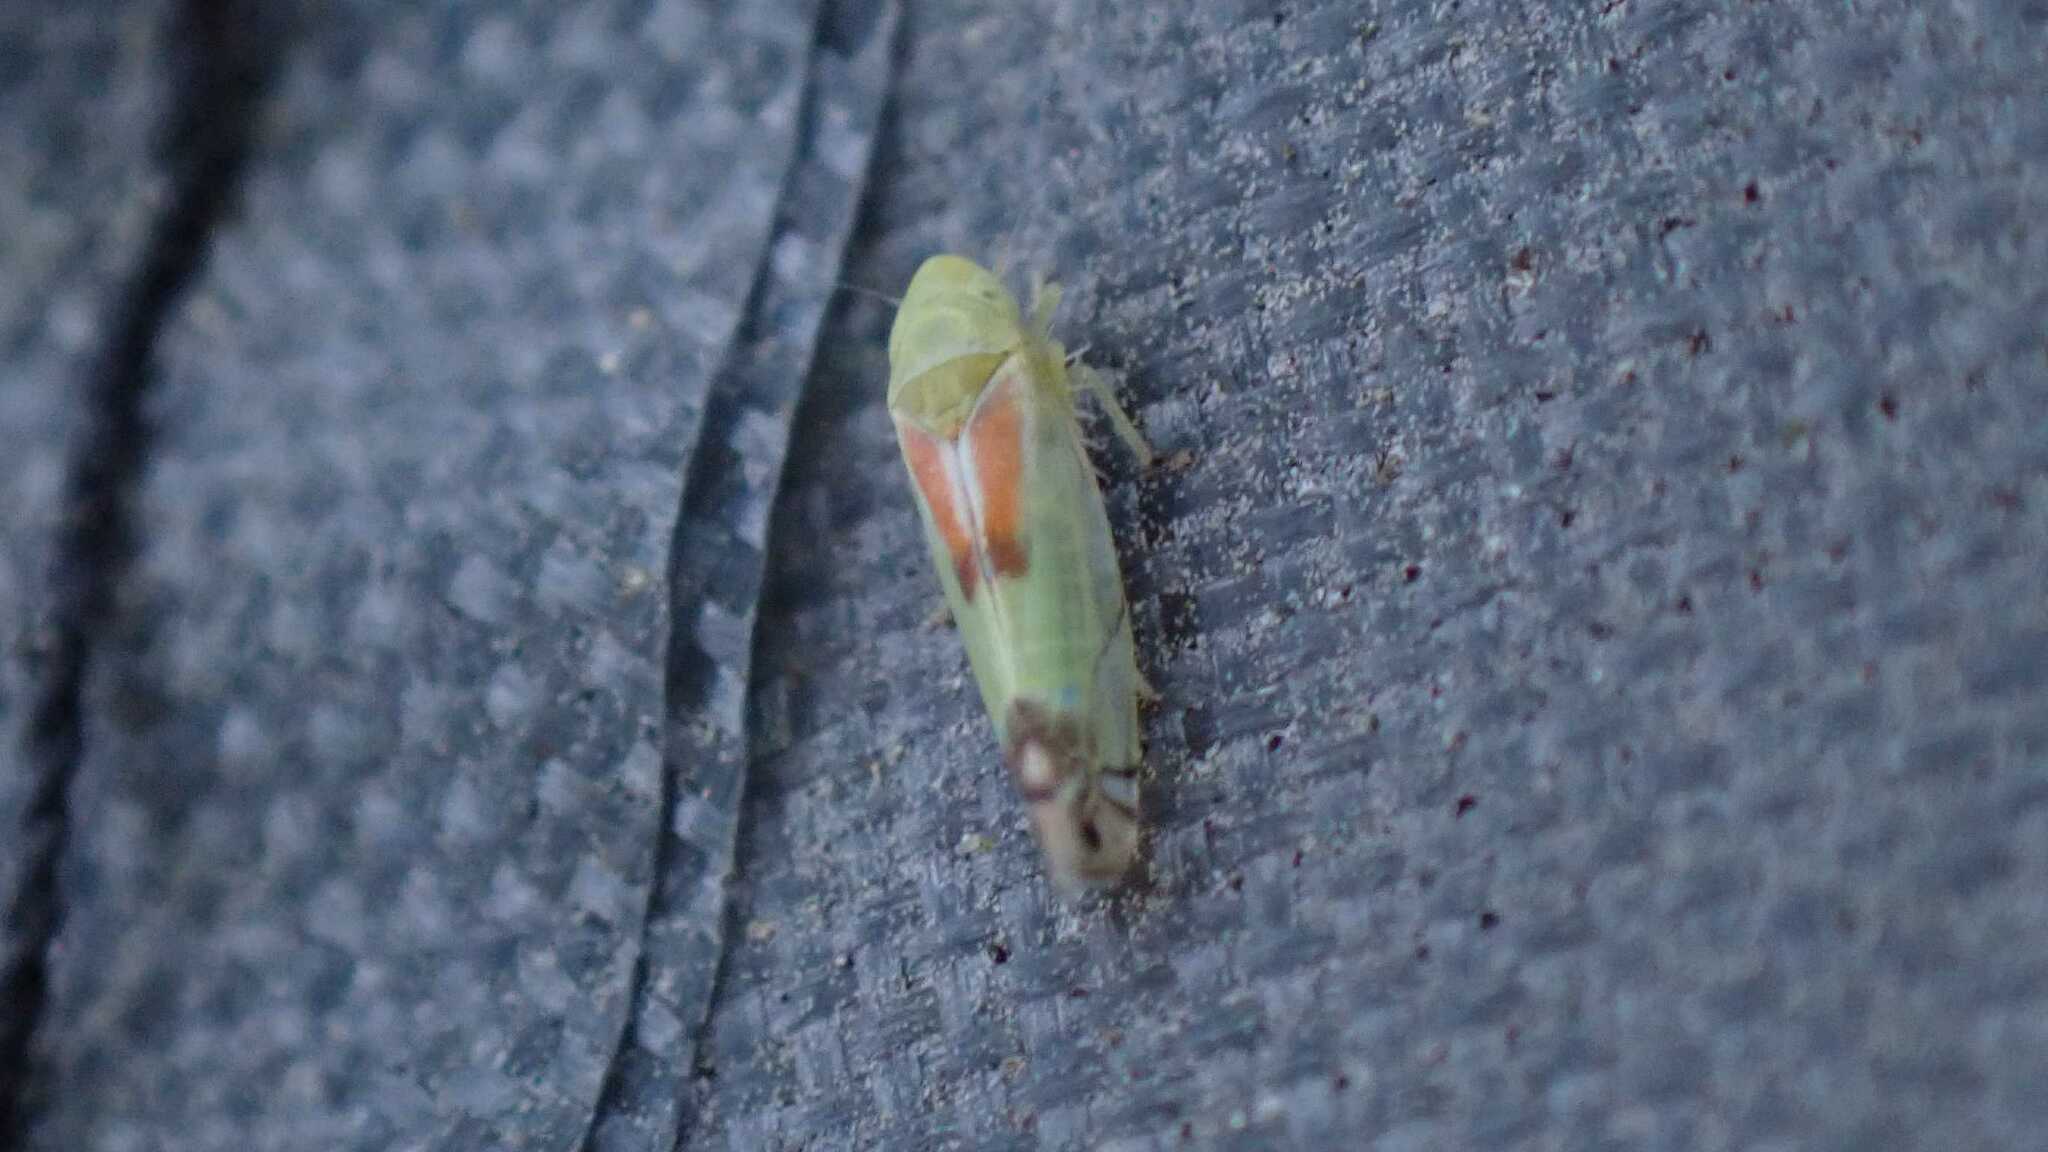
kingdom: Animalia
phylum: Arthropoda
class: Insecta
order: Hemiptera
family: Cicadellidae
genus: Zyginella
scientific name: Zyginella pulchra
